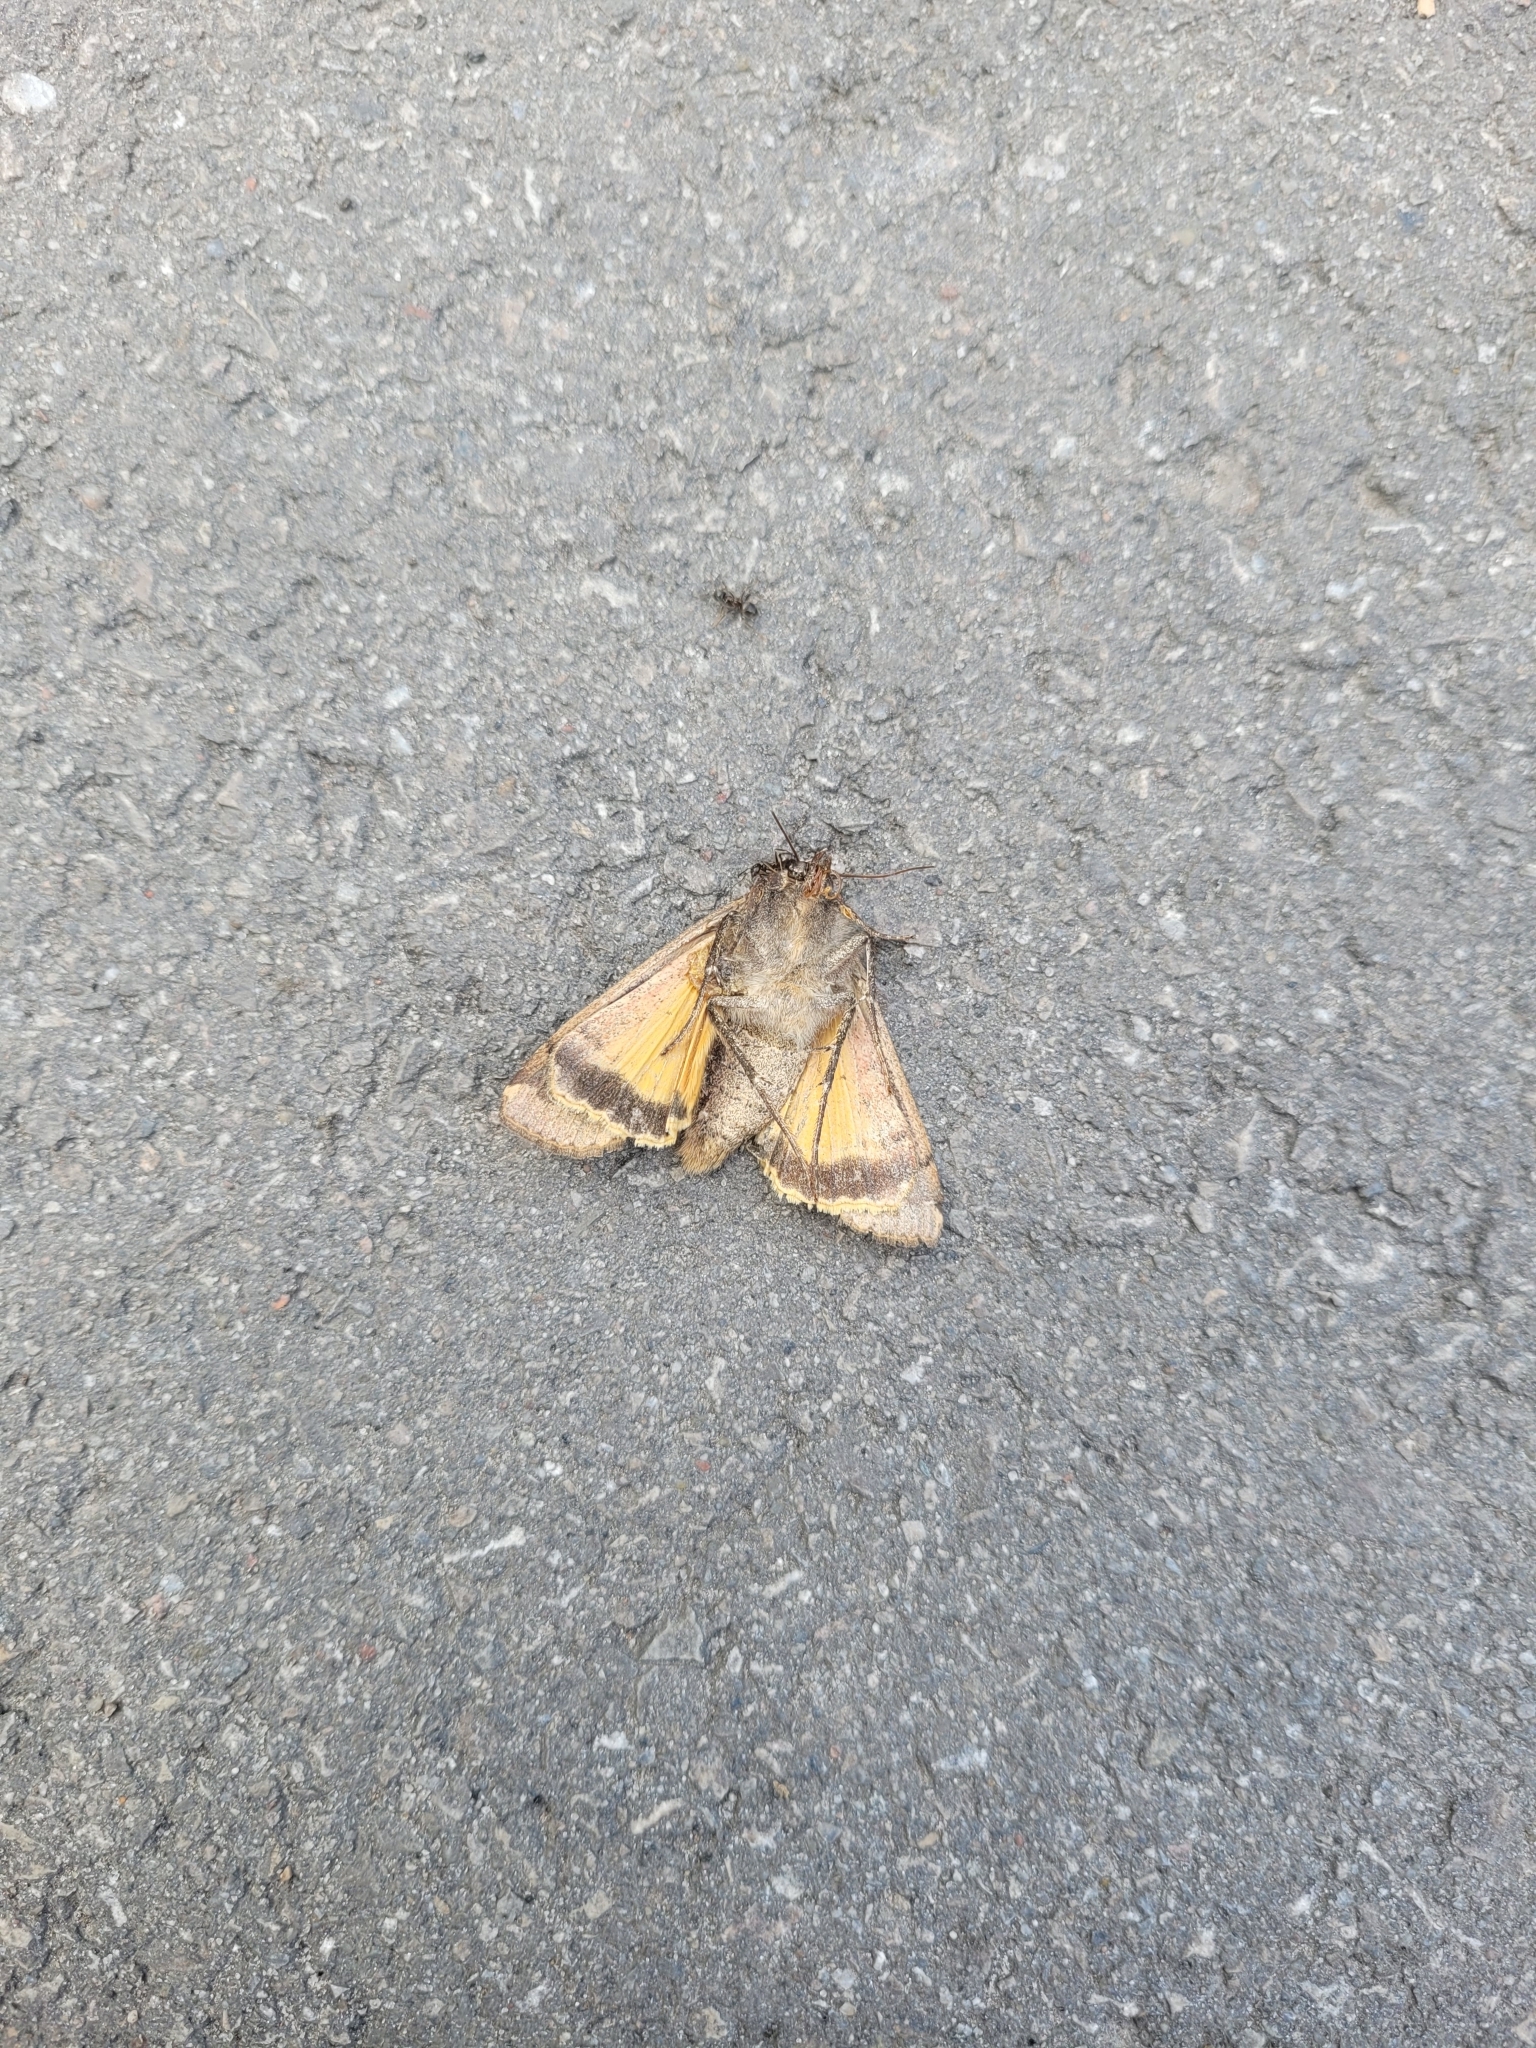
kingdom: Animalia
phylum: Arthropoda
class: Insecta
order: Lepidoptera
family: Noctuidae
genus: Noctua
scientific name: Noctua pronuba
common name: Large yellow underwing
